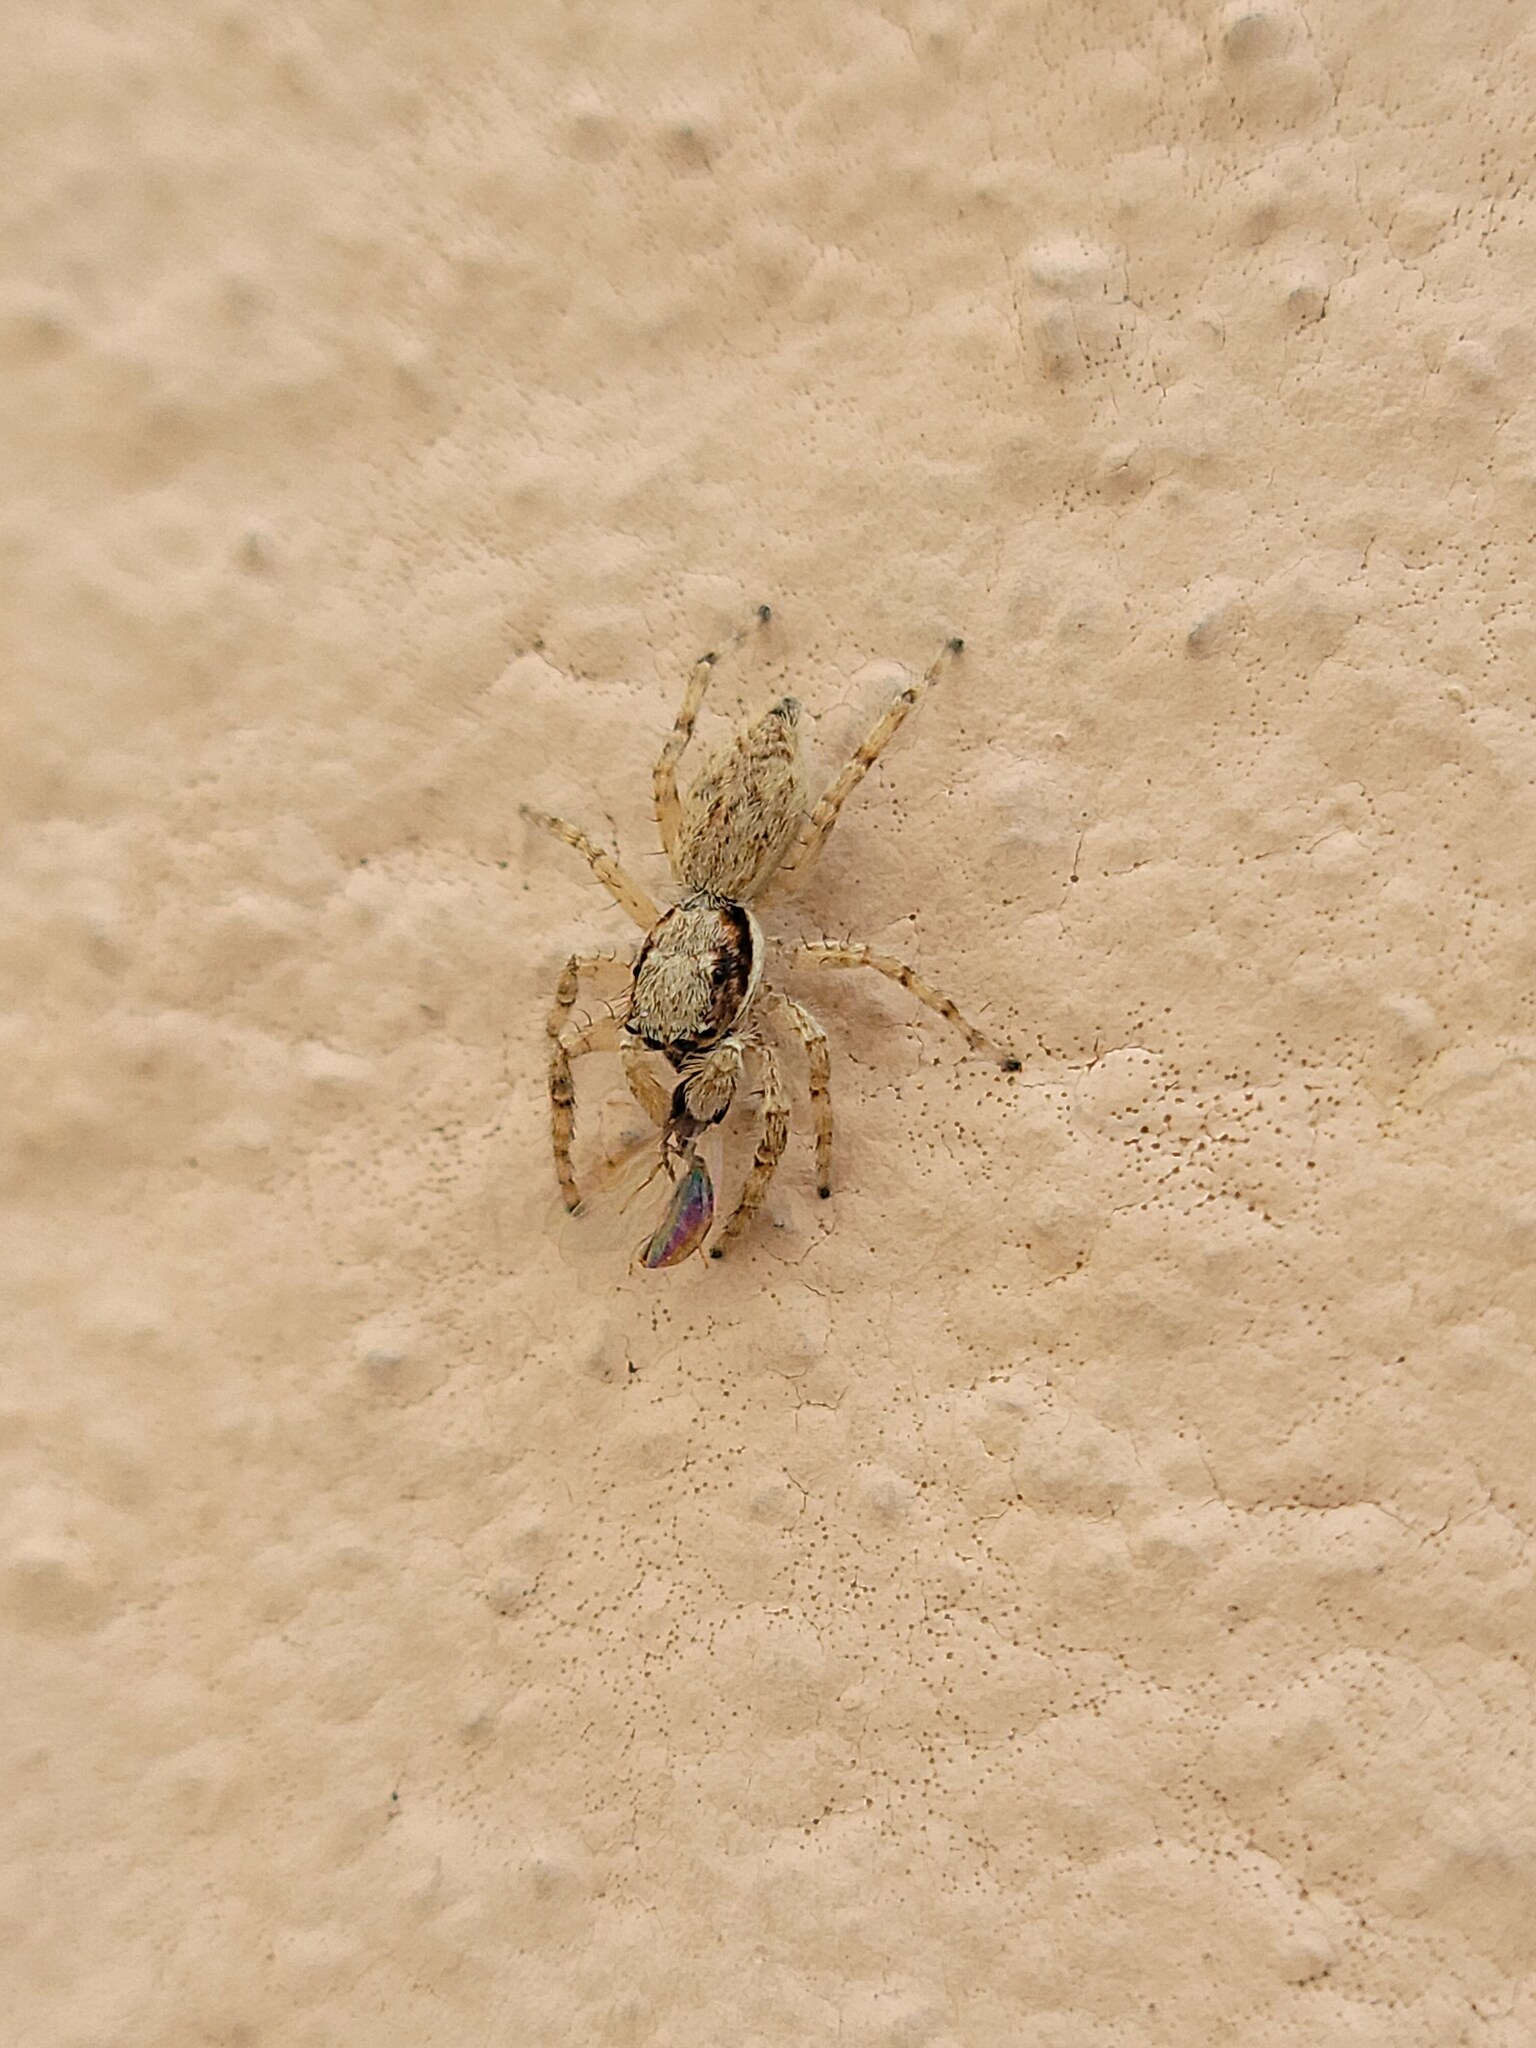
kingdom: Animalia
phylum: Arthropoda
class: Arachnida
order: Araneae
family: Salticidae
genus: Menemerus
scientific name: Menemerus bivittatus
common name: Gray wall jumper
